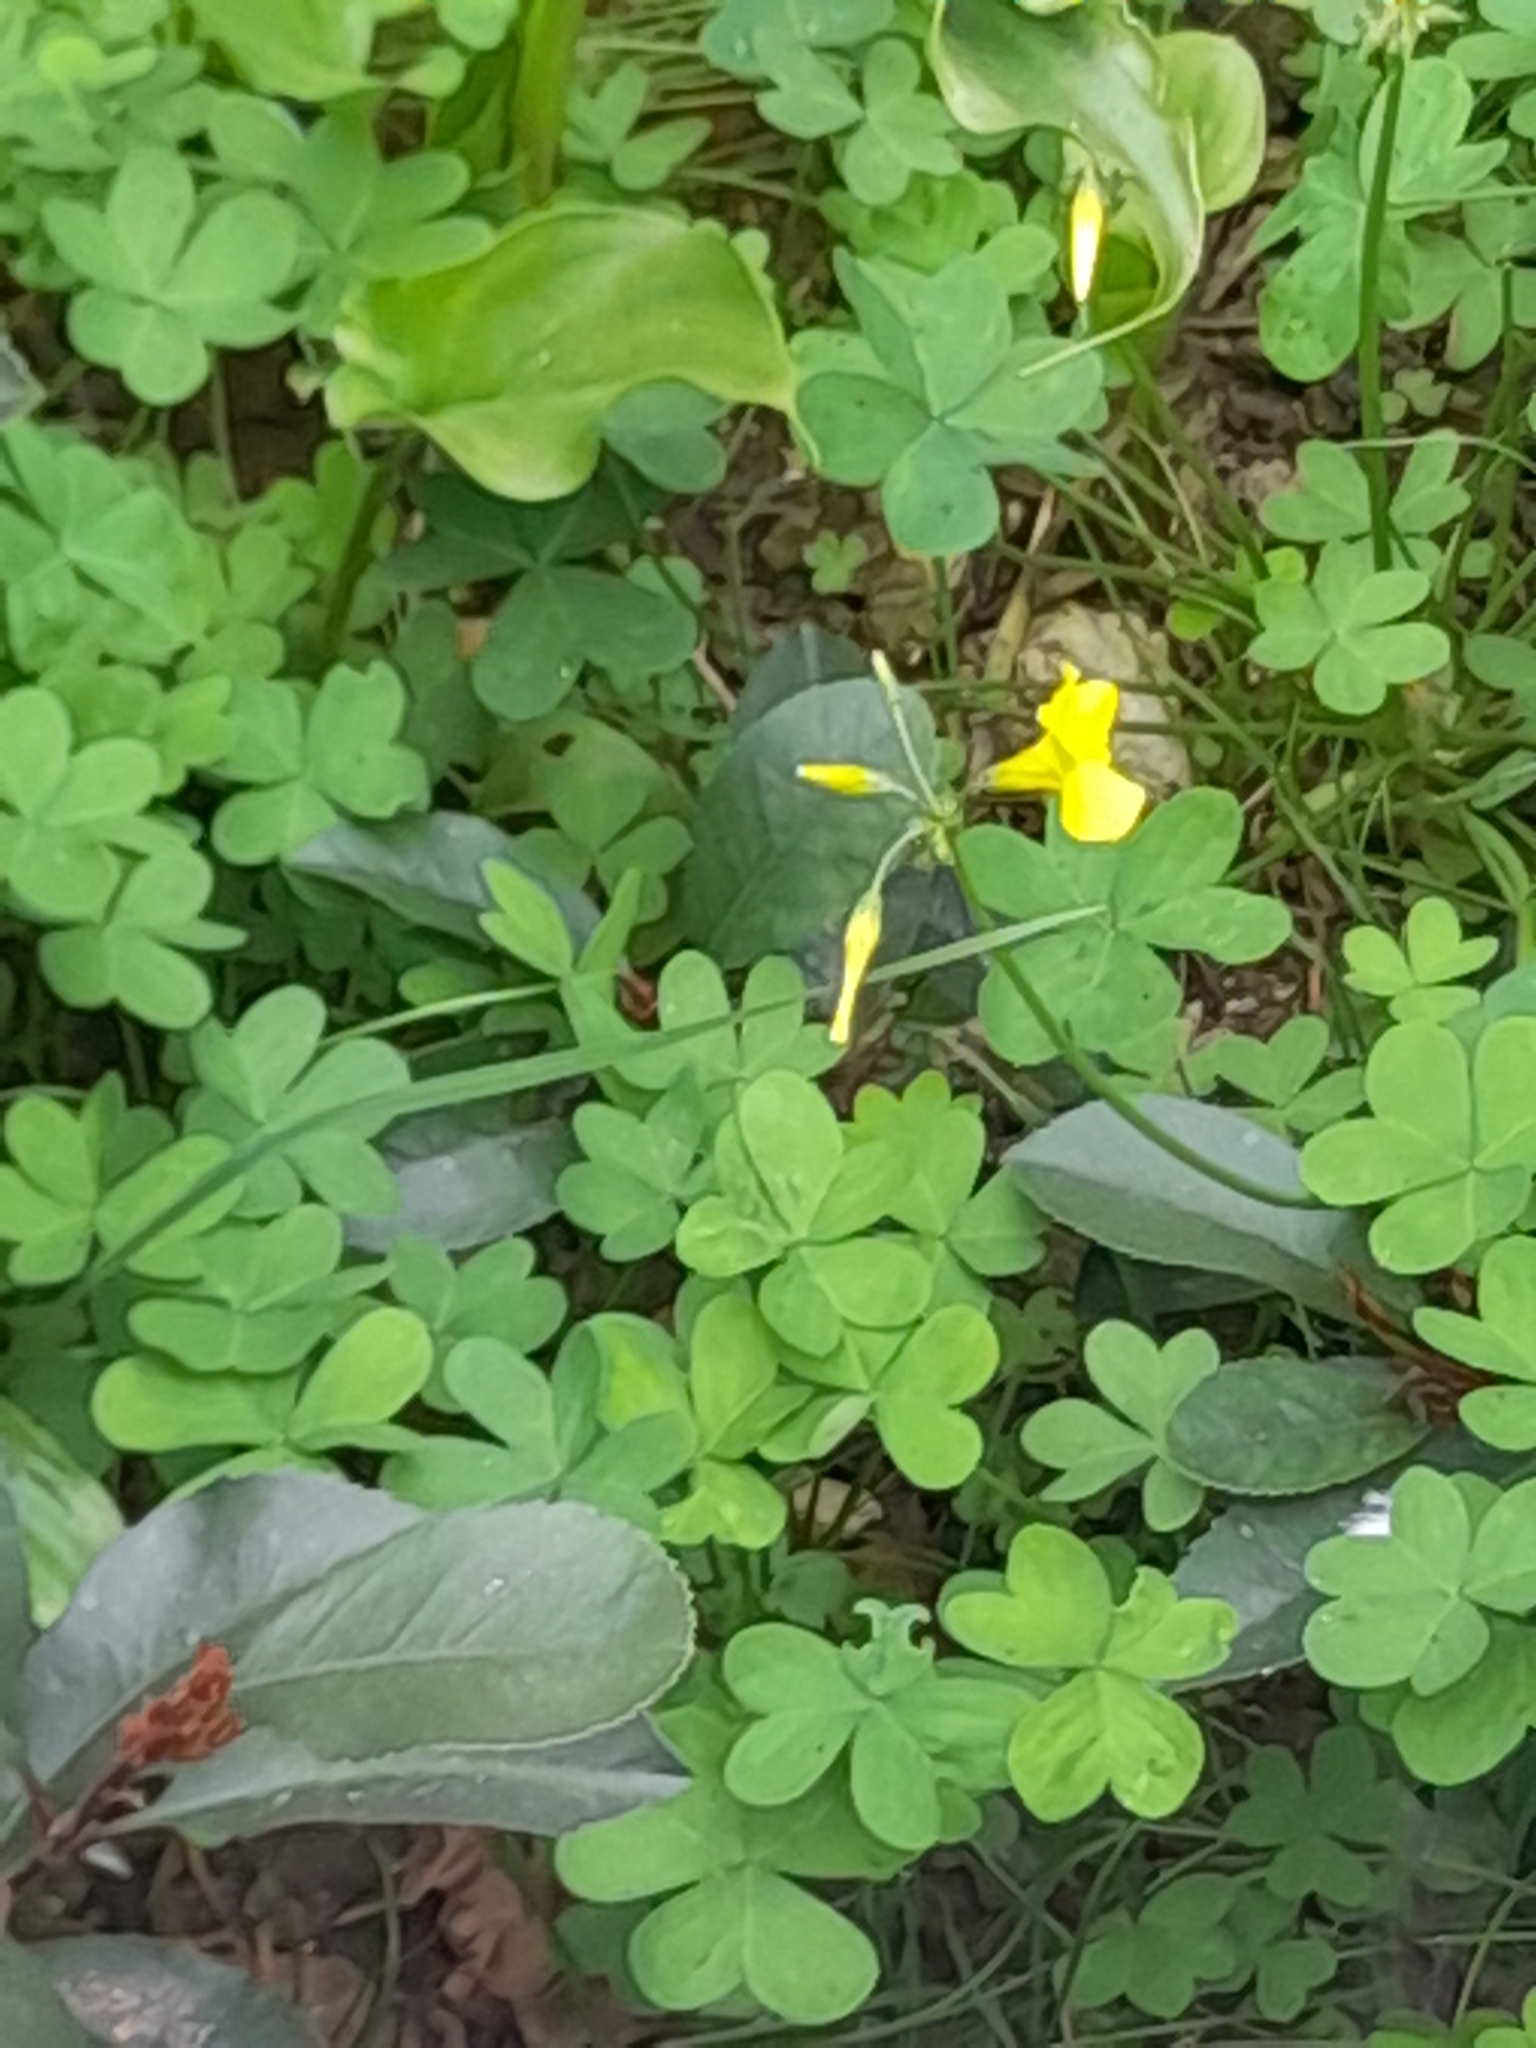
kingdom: Plantae
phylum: Tracheophyta
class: Magnoliopsida
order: Oxalidales
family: Oxalidaceae
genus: Oxalis
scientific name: Oxalis pes-caprae
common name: Bermuda-buttercup
